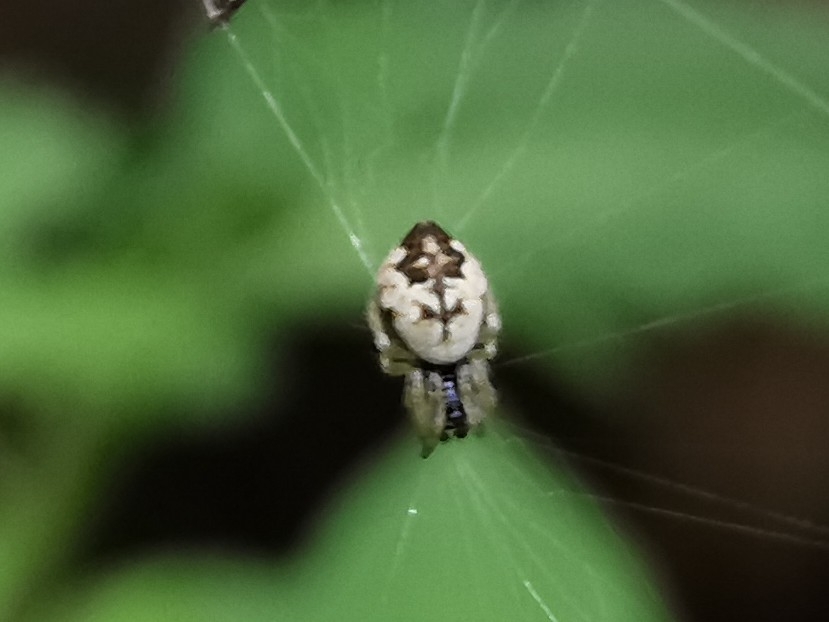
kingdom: Animalia
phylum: Arthropoda
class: Arachnida
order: Araneae
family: Araneidae
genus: Cyclosa
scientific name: Cyclosa conica
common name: Conical trashline orbweaver
